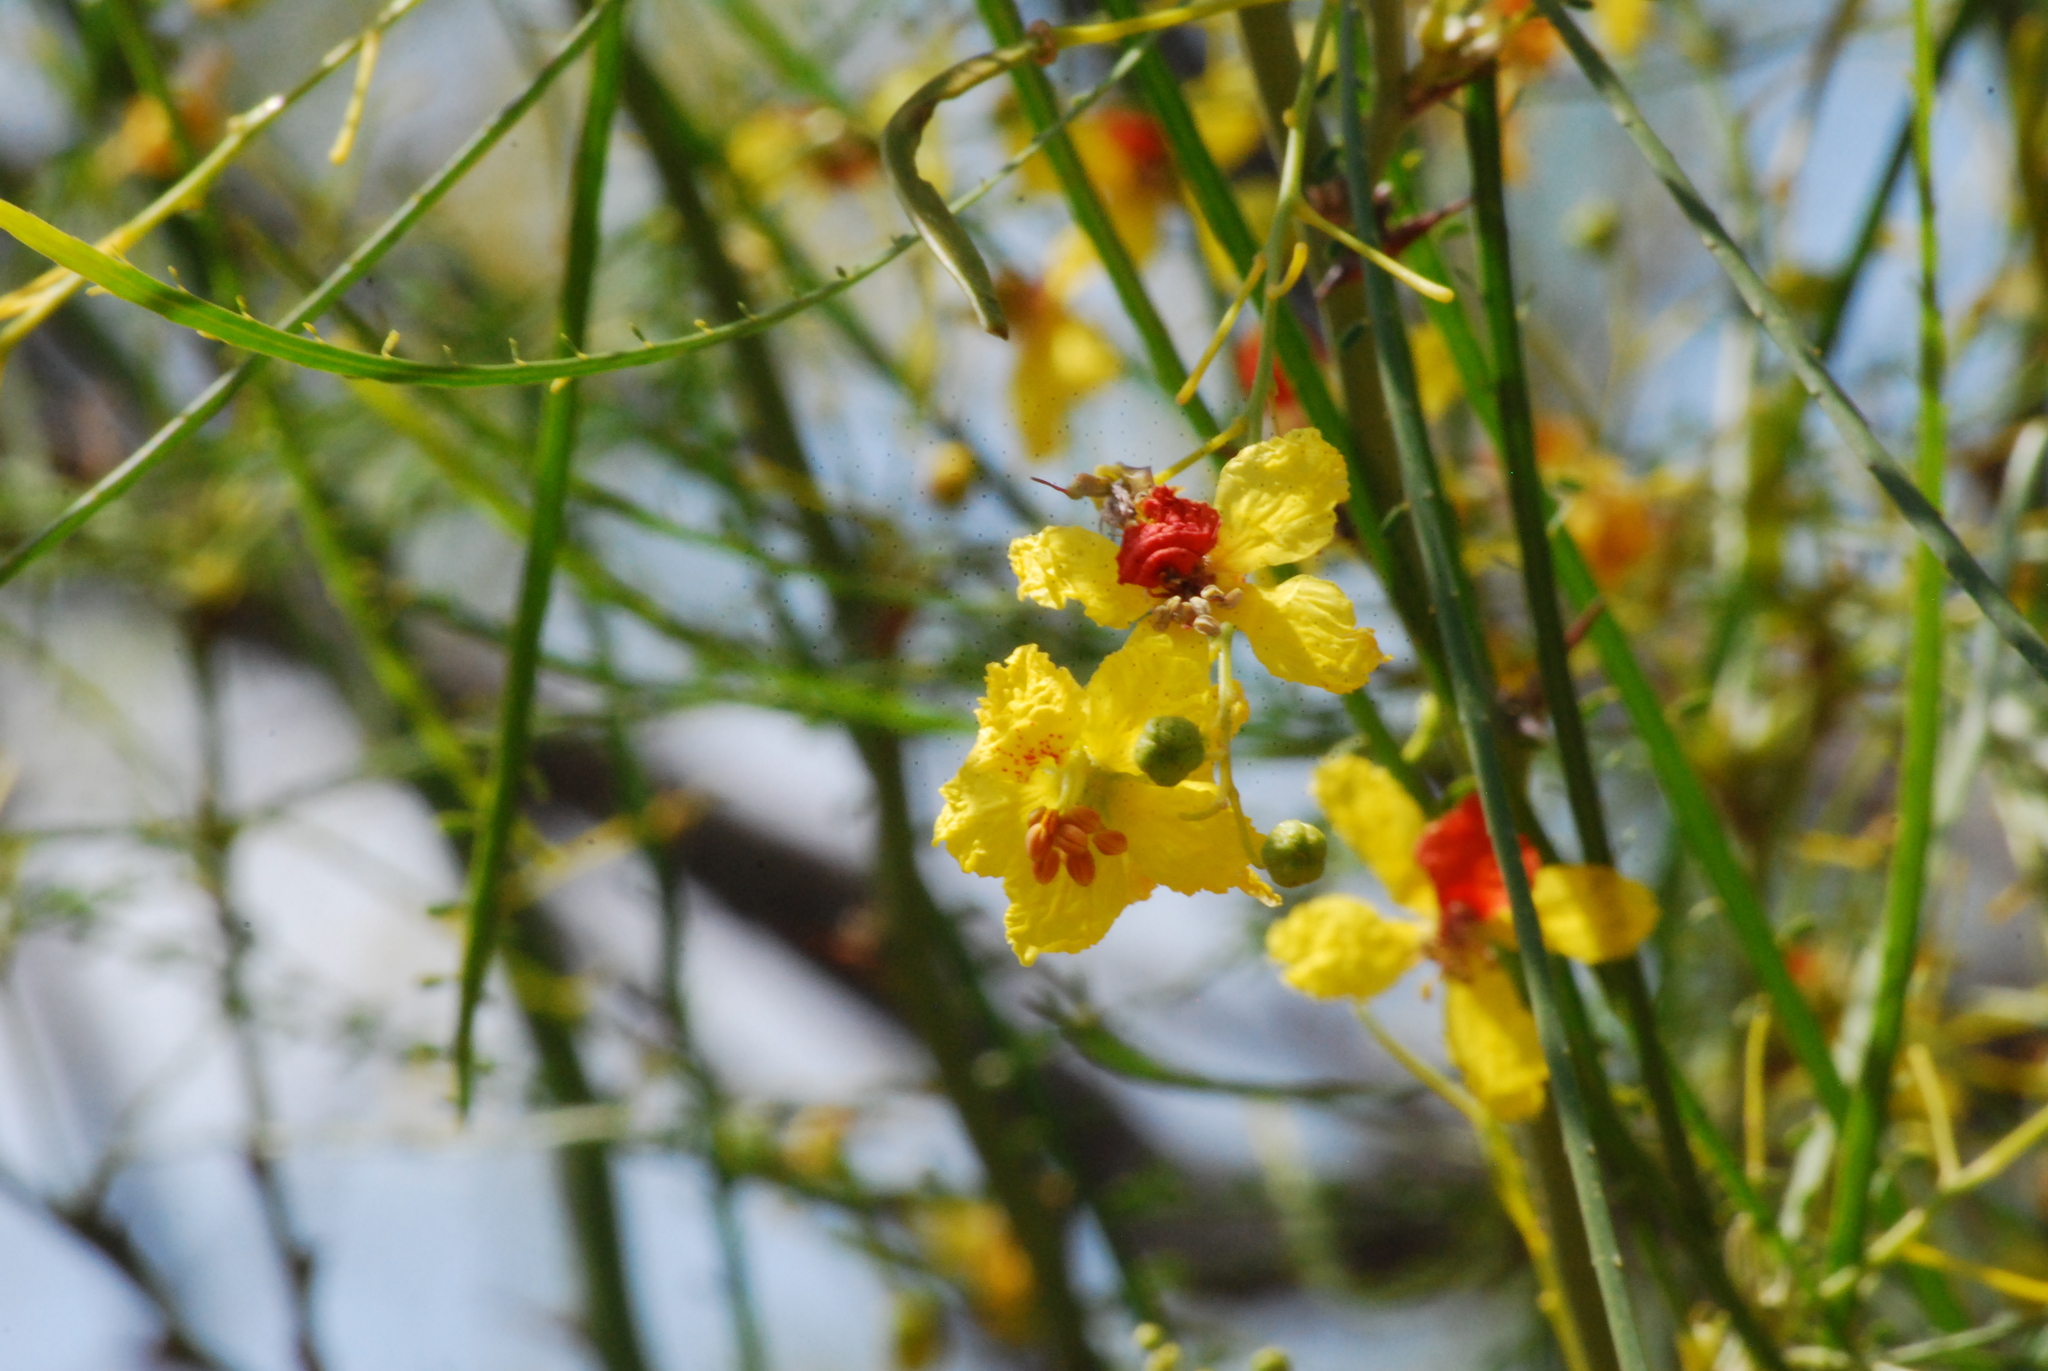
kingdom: Plantae
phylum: Tracheophyta
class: Magnoliopsida
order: Fabales
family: Fabaceae
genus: Parkinsonia
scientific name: Parkinsonia aculeata
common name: Jerusalem thorn
